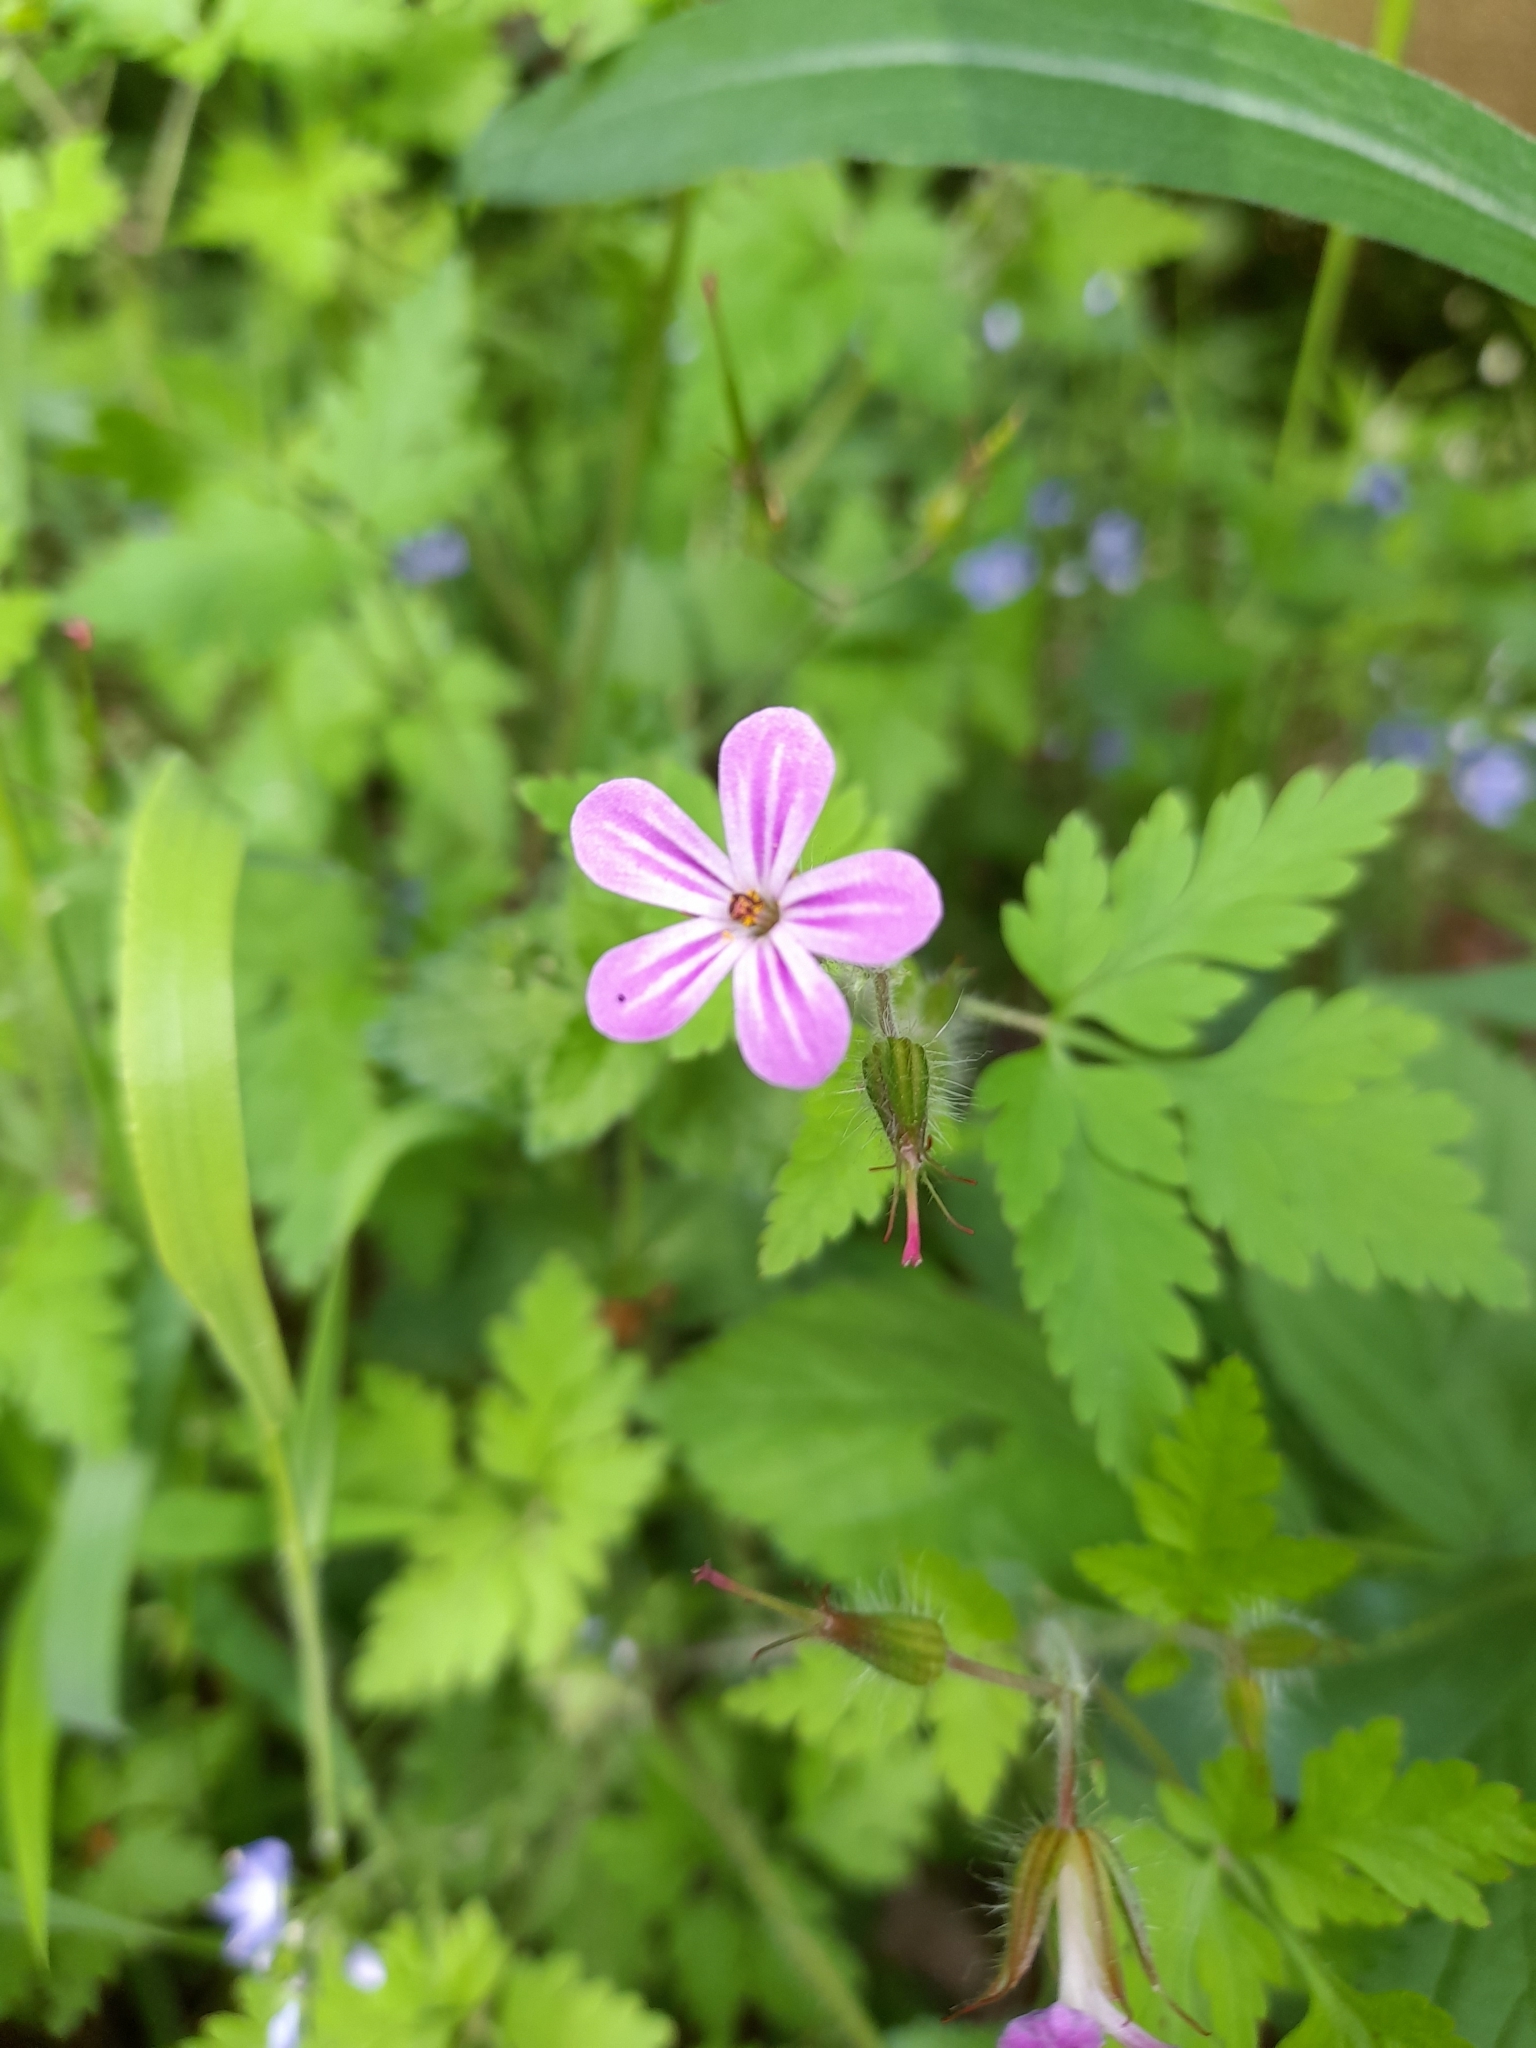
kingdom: Plantae
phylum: Tracheophyta
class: Magnoliopsida
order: Geraniales
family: Geraniaceae
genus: Geranium
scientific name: Geranium robertianum
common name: Herb-robert
